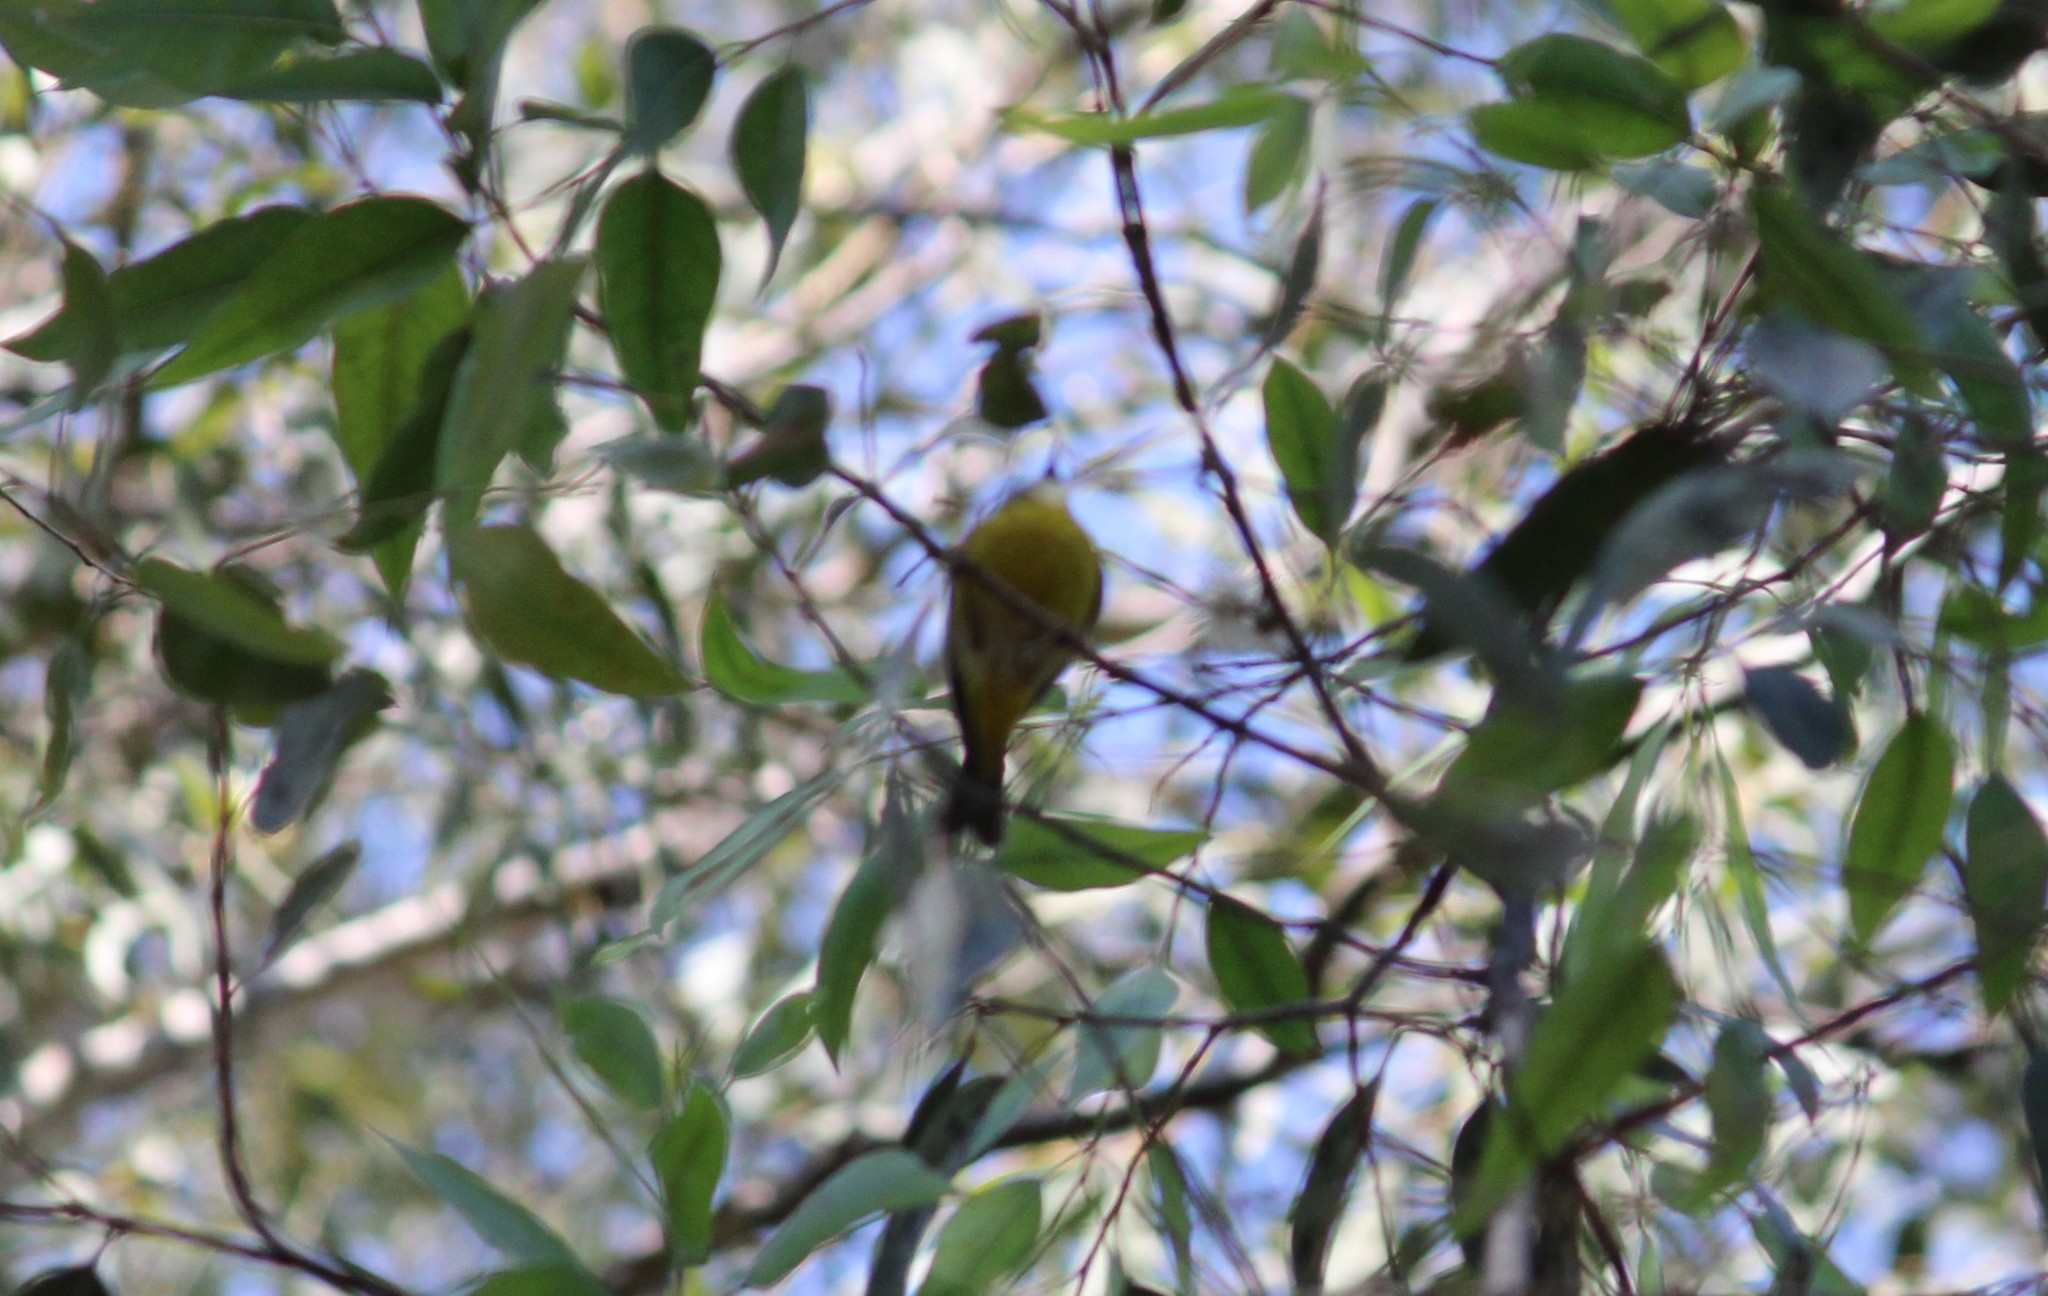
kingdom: Animalia
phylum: Chordata
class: Aves
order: Passeriformes
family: Parulidae
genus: Cardellina
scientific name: Cardellina pusilla
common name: Wilson's warbler
